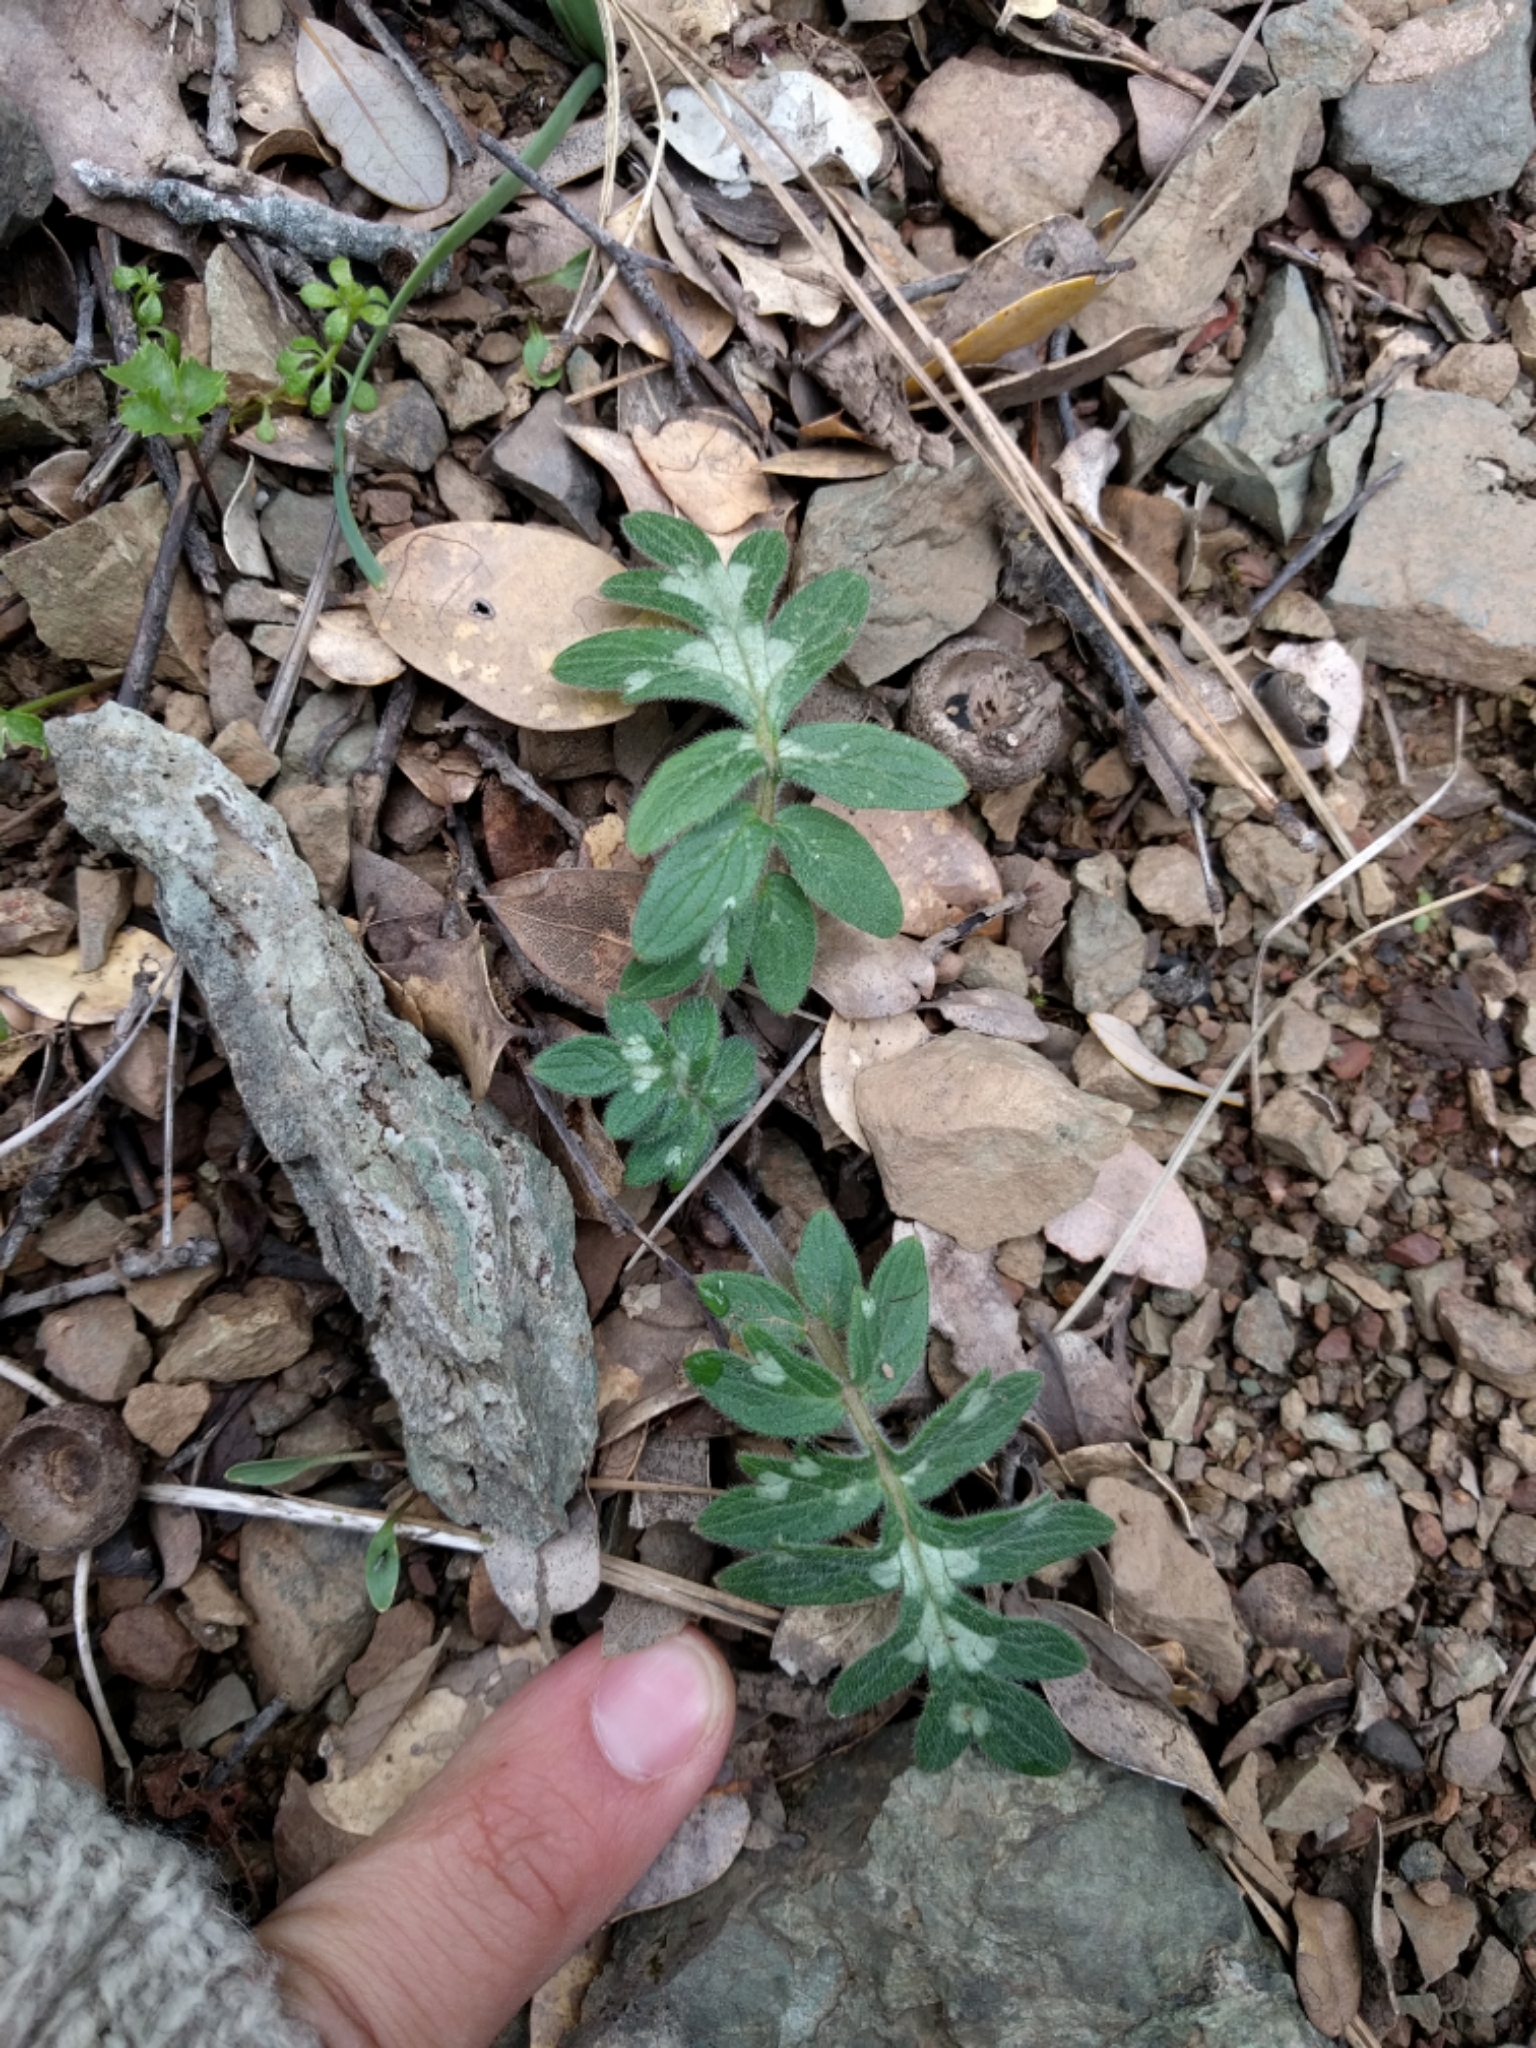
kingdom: Plantae
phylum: Tracheophyta
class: Magnoliopsida
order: Boraginales
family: Hydrophyllaceae
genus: Hydrophyllum
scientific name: Hydrophyllum occidentale
